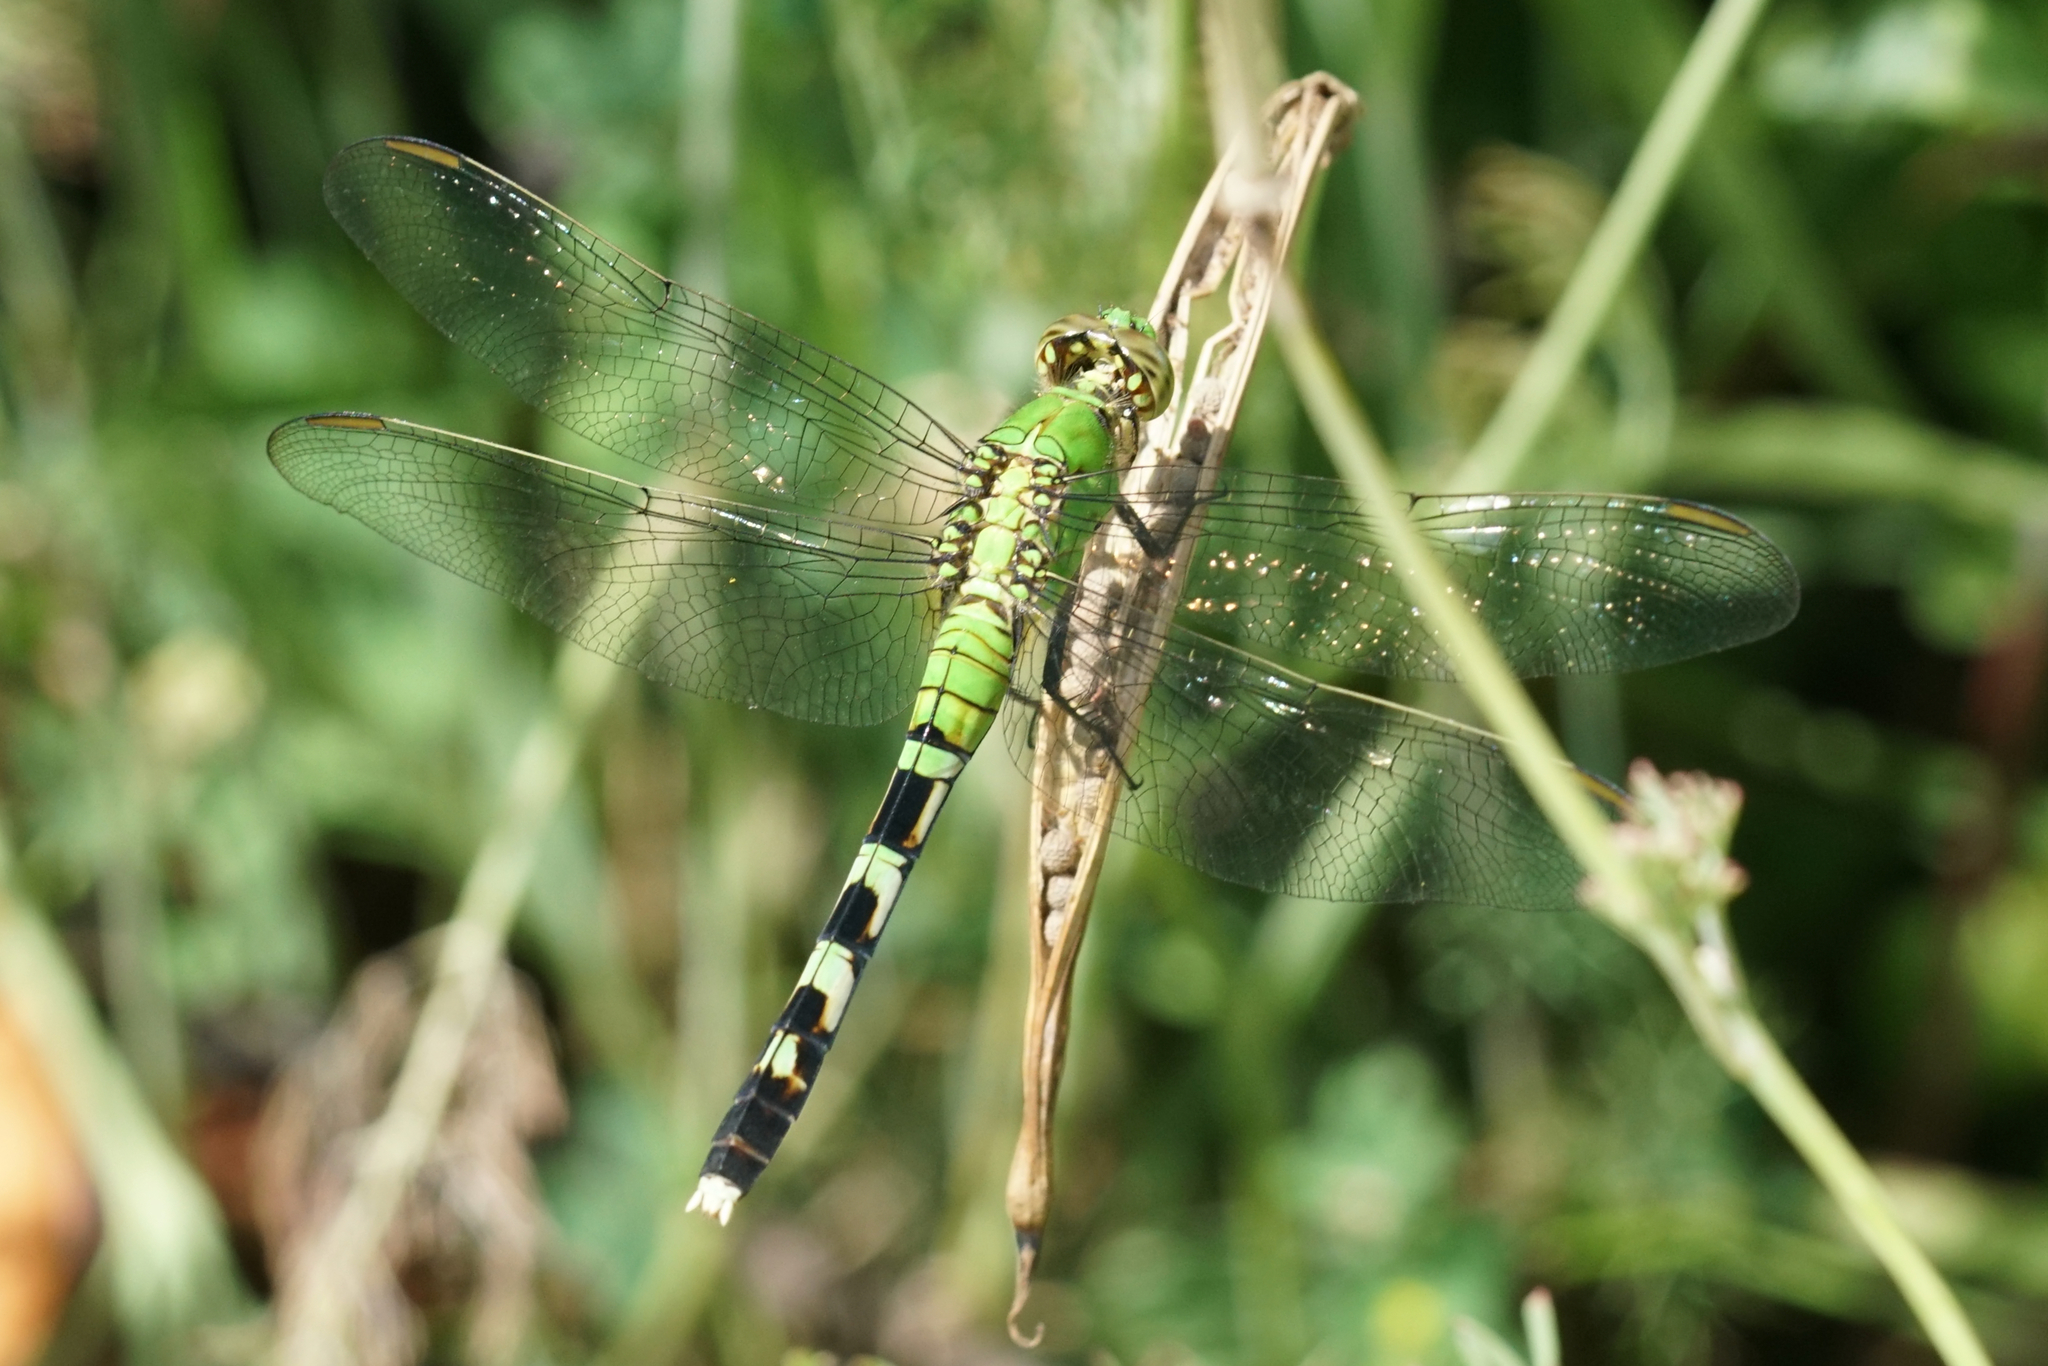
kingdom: Animalia
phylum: Arthropoda
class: Insecta
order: Odonata
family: Libellulidae
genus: Erythemis
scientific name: Erythemis simplicicollis
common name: Eastern pondhawk
